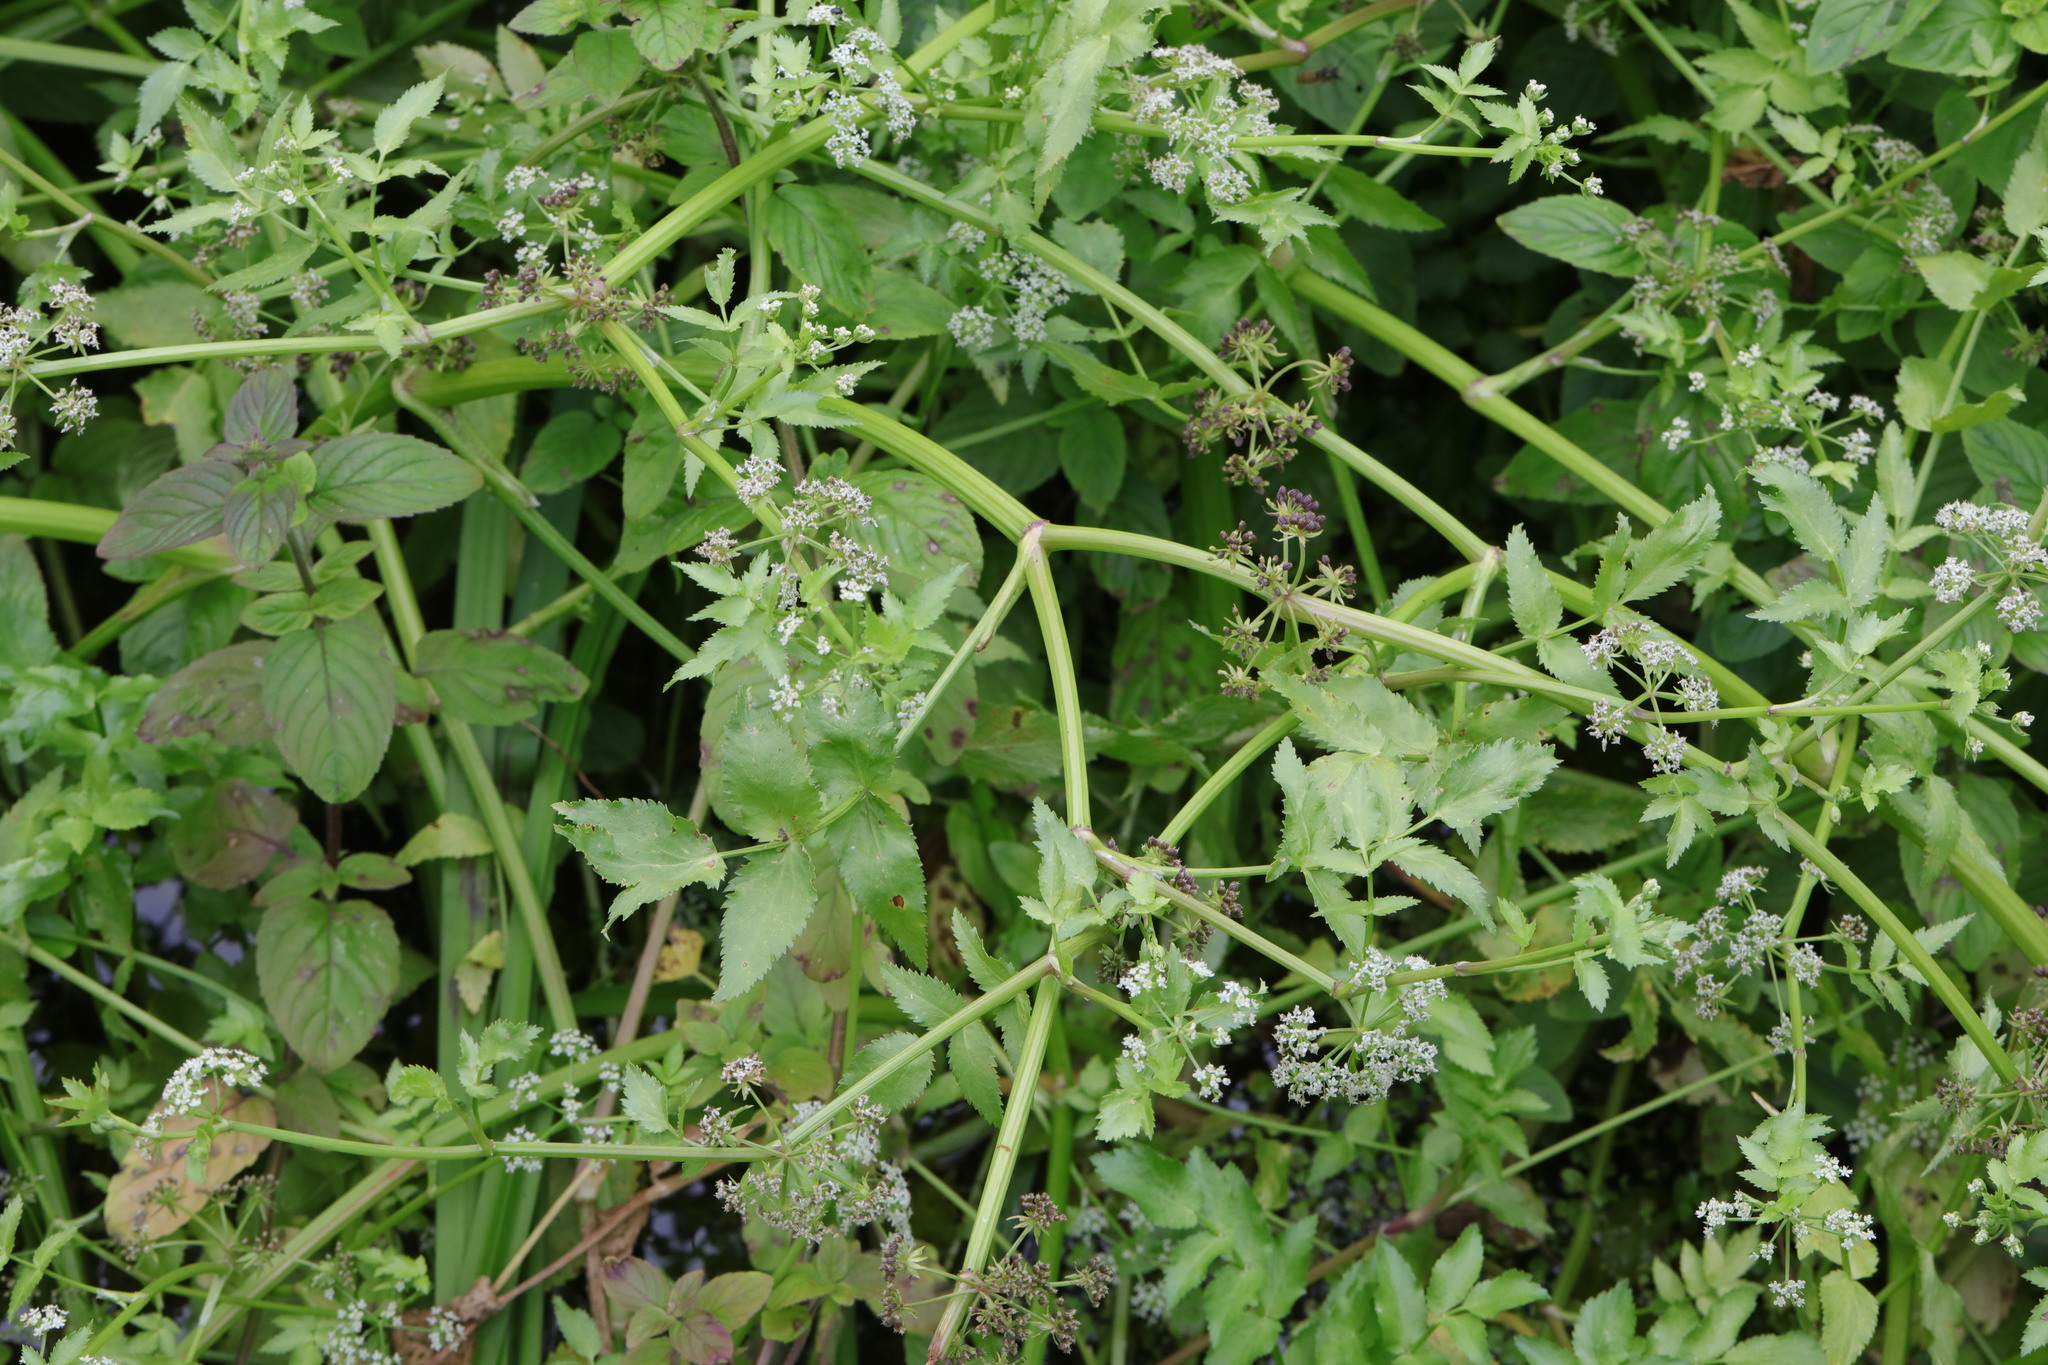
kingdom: Plantae
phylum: Tracheophyta
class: Magnoliopsida
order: Apiales
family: Apiaceae
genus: Helosciadium
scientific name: Helosciadium nodiflorum
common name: Fool's-watercress
